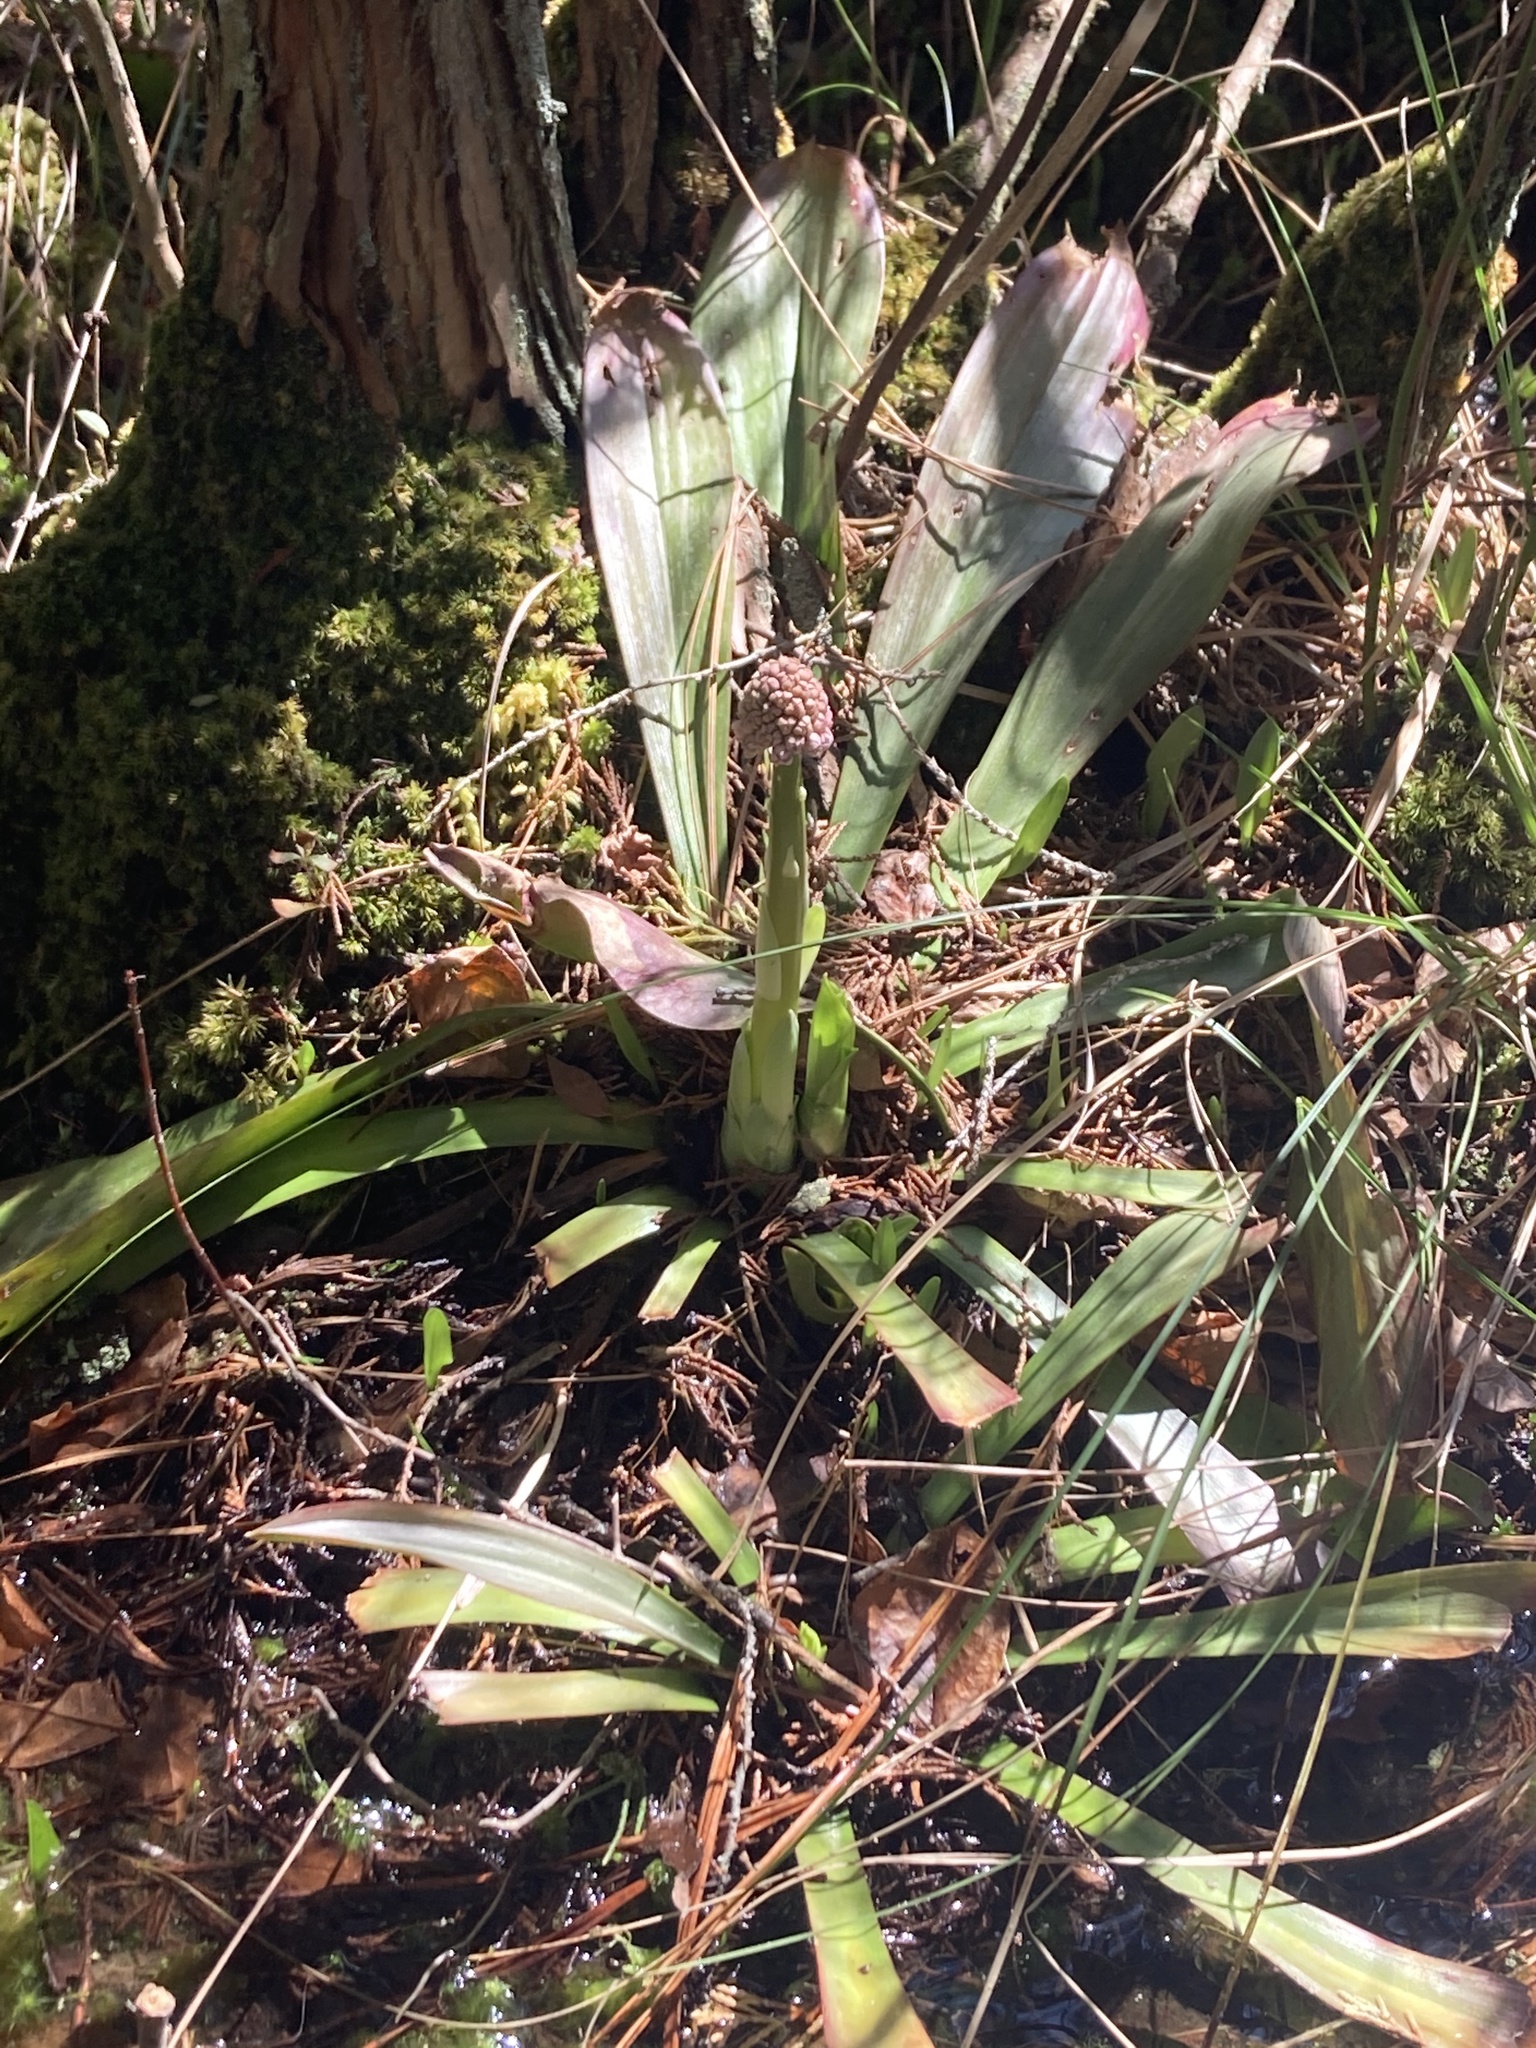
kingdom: Plantae
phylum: Tracheophyta
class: Liliopsida
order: Liliales
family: Melanthiaceae
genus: Helonias
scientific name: Helonias bullata
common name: Swamp-pink
